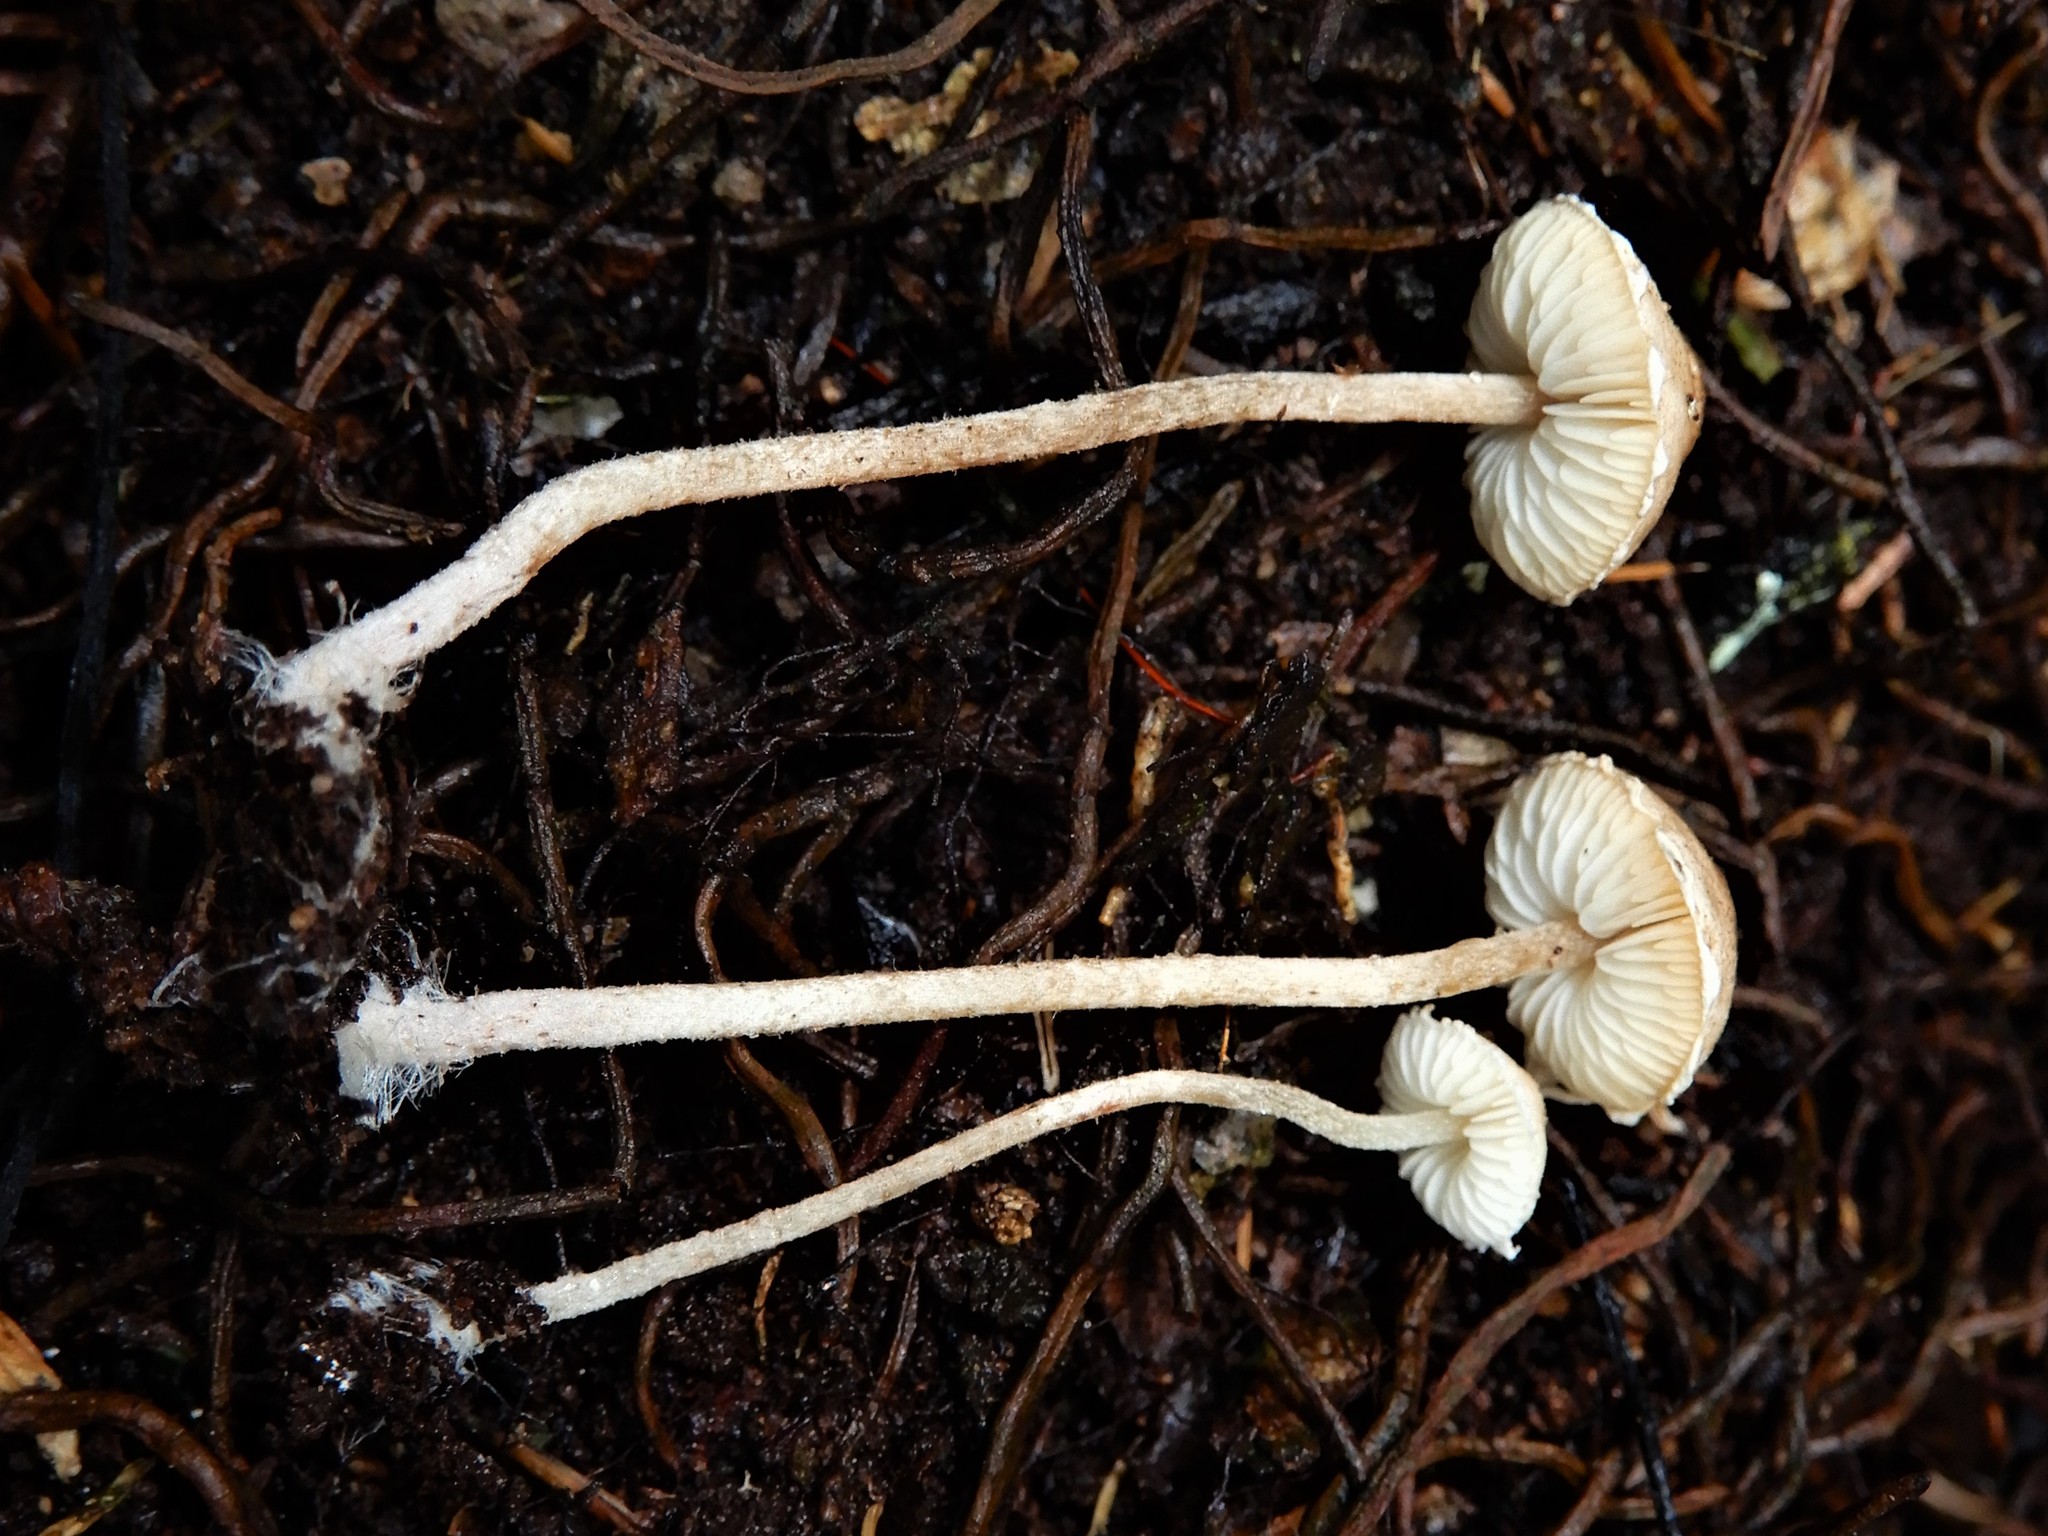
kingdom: Fungi
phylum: Basidiomycota
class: Agaricomycetes
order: Agaricales
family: Agaricaceae
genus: Cystolepiota
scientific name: Cystolepiota
